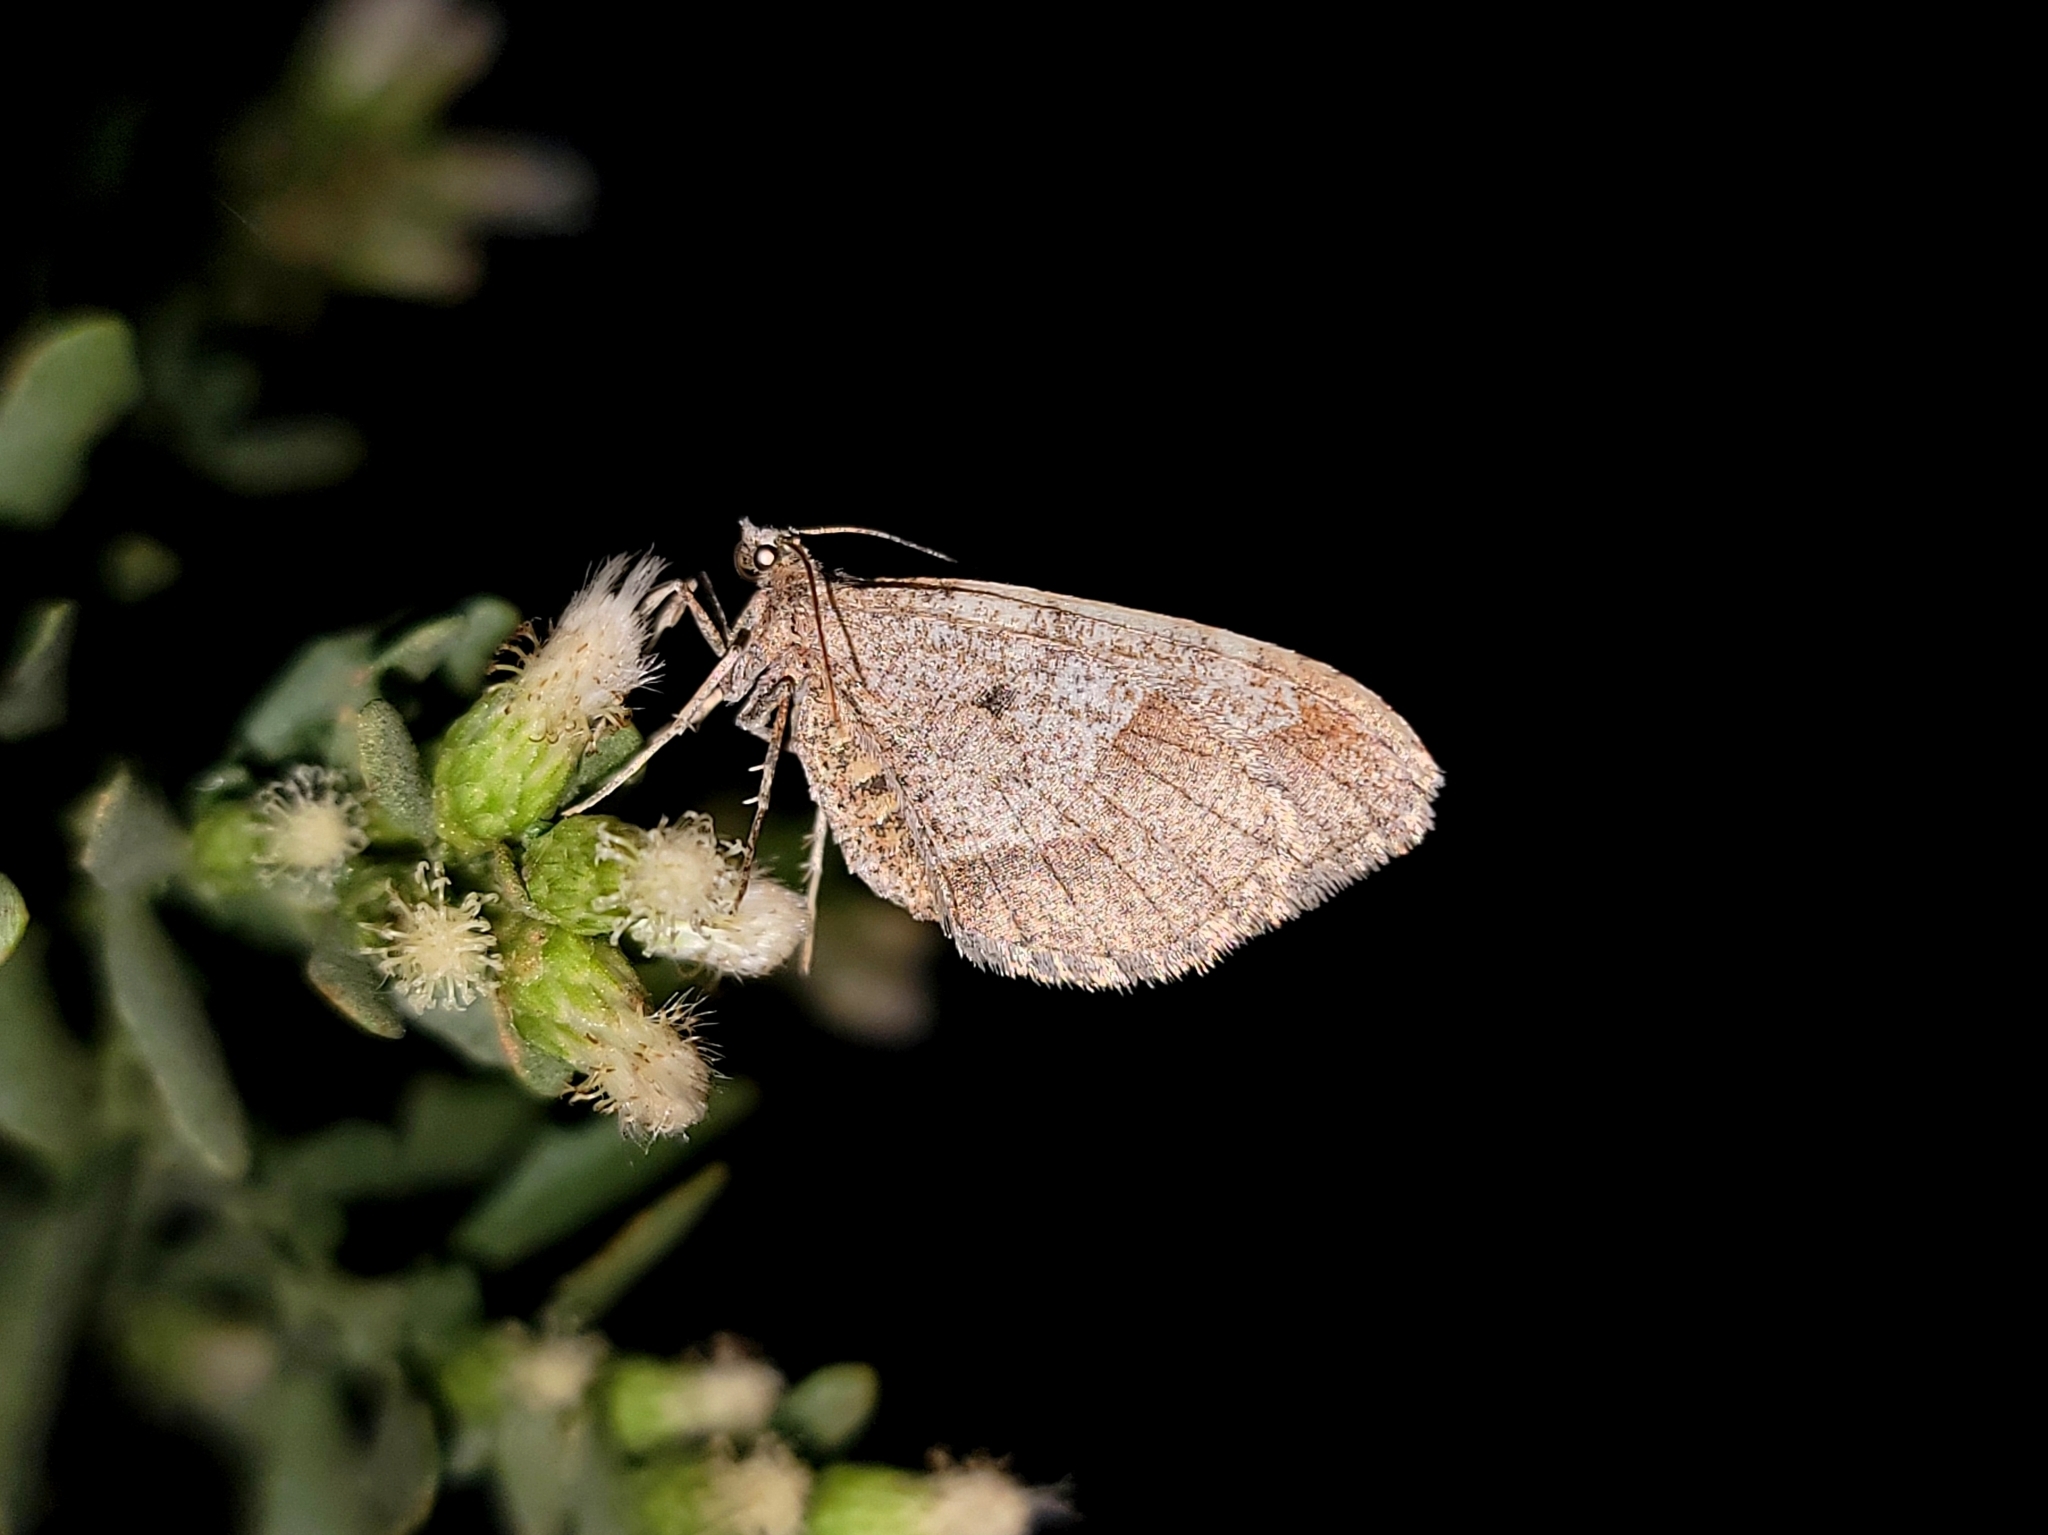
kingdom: Animalia
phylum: Arthropoda
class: Insecta
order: Lepidoptera
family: Geometridae
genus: Stamnodes
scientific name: Stamnodes affiliata
